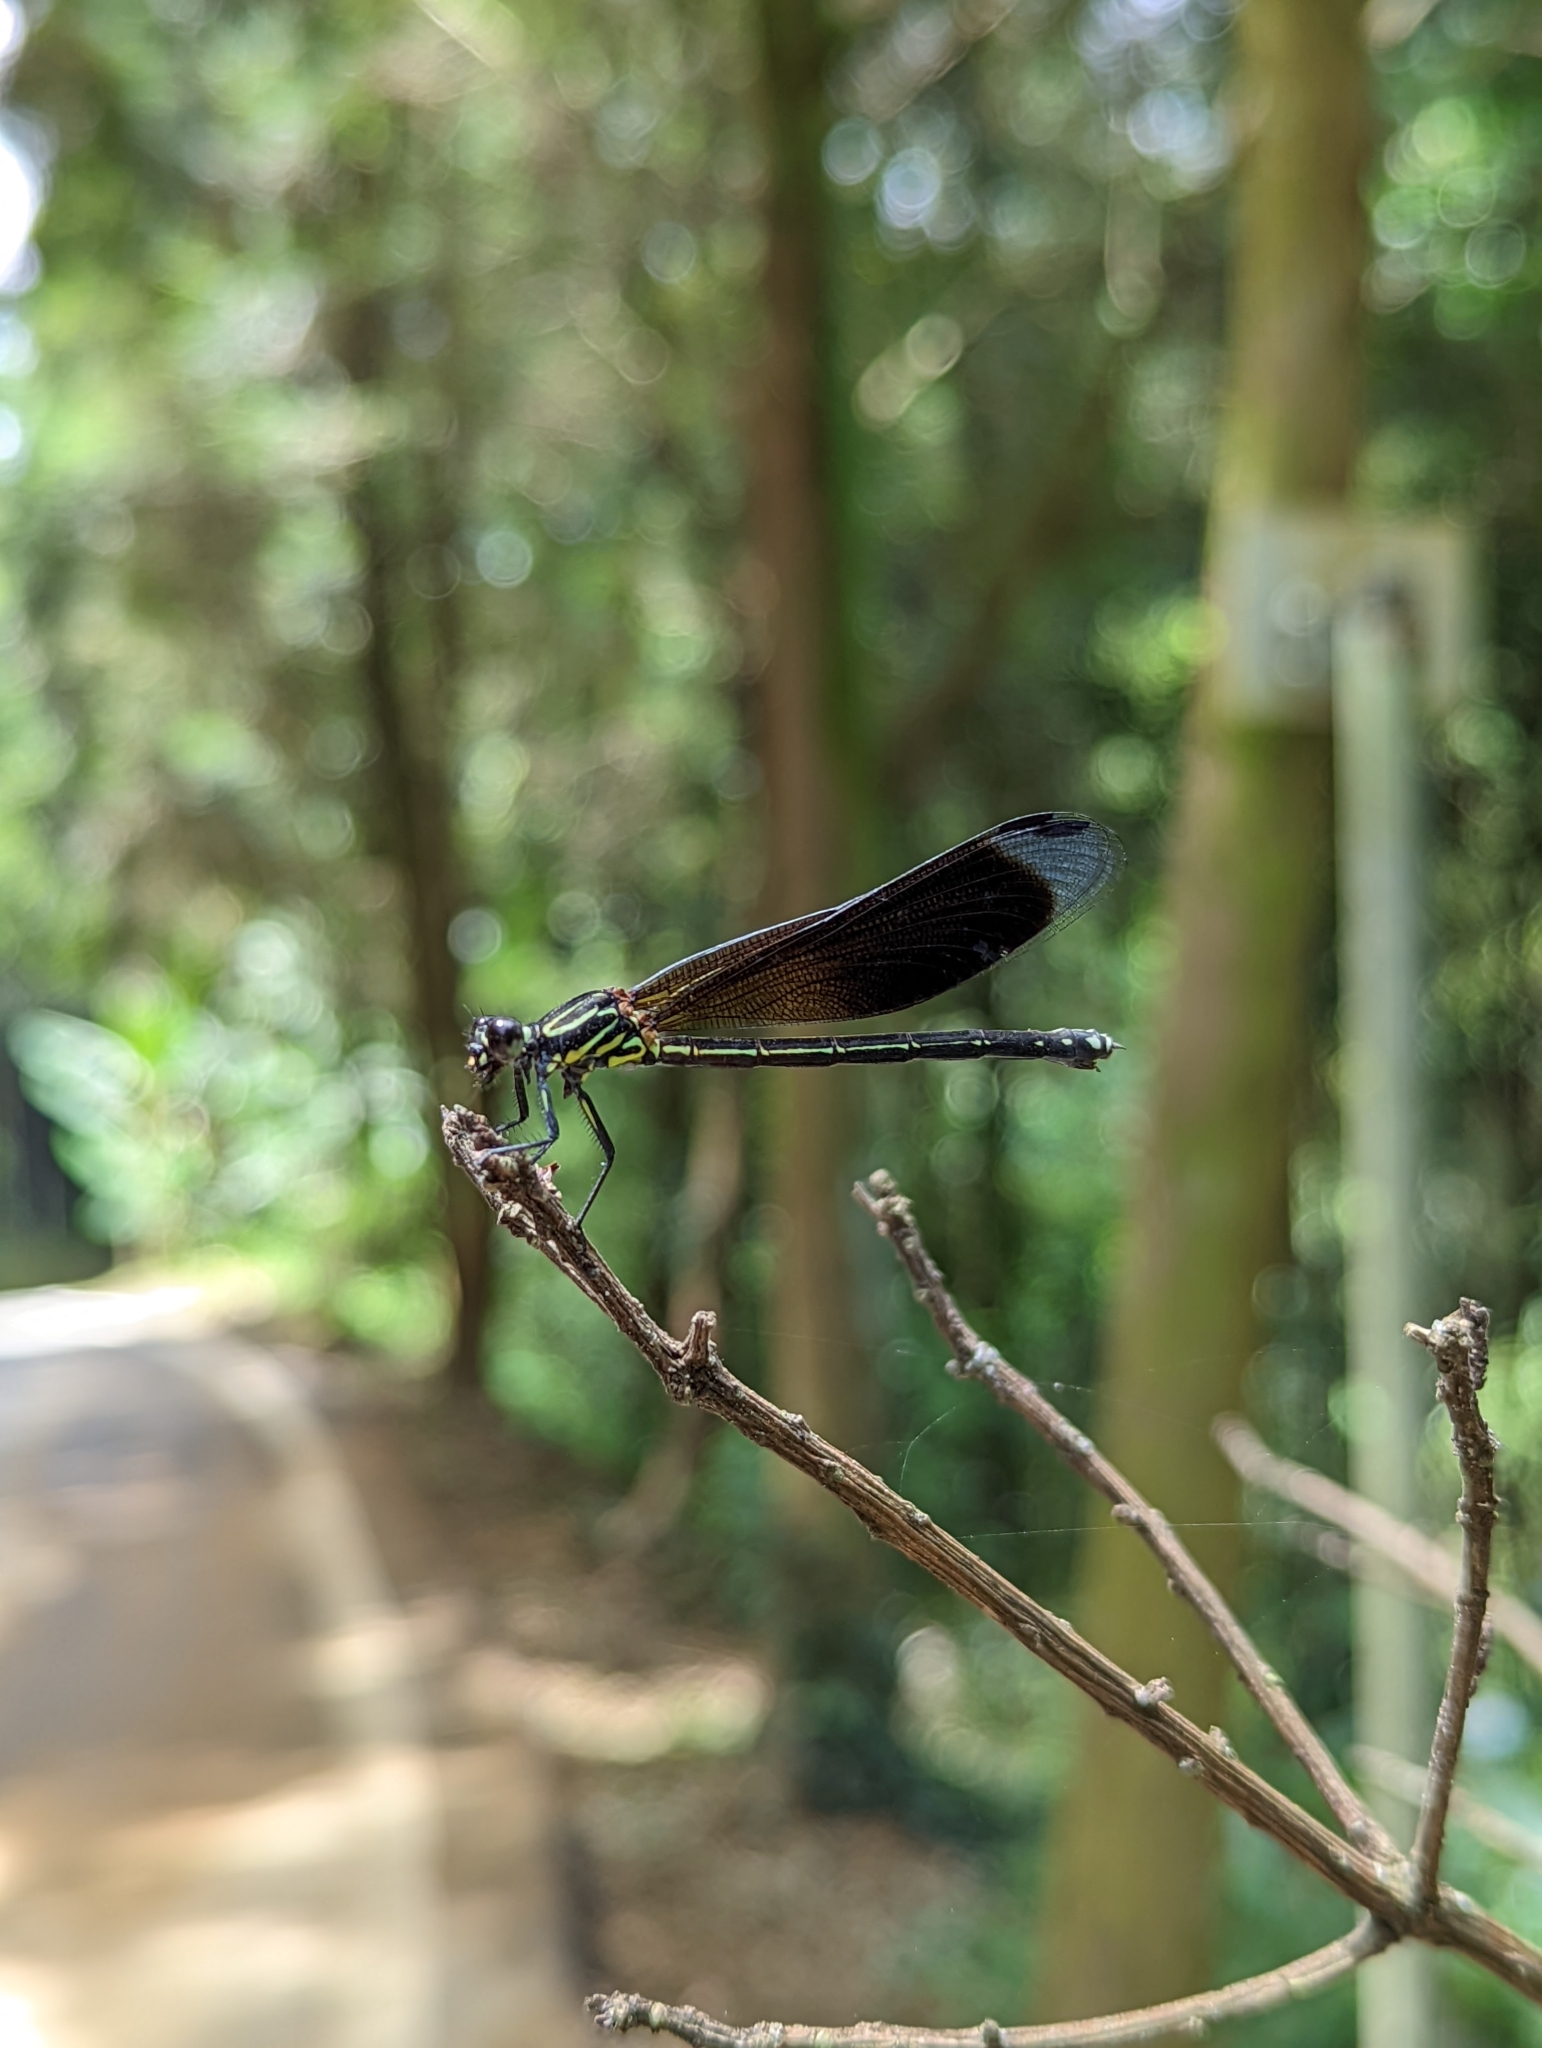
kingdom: Animalia
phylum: Arthropoda
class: Insecta
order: Odonata
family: Euphaeidae
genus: Euphaea
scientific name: Euphaea formosa
